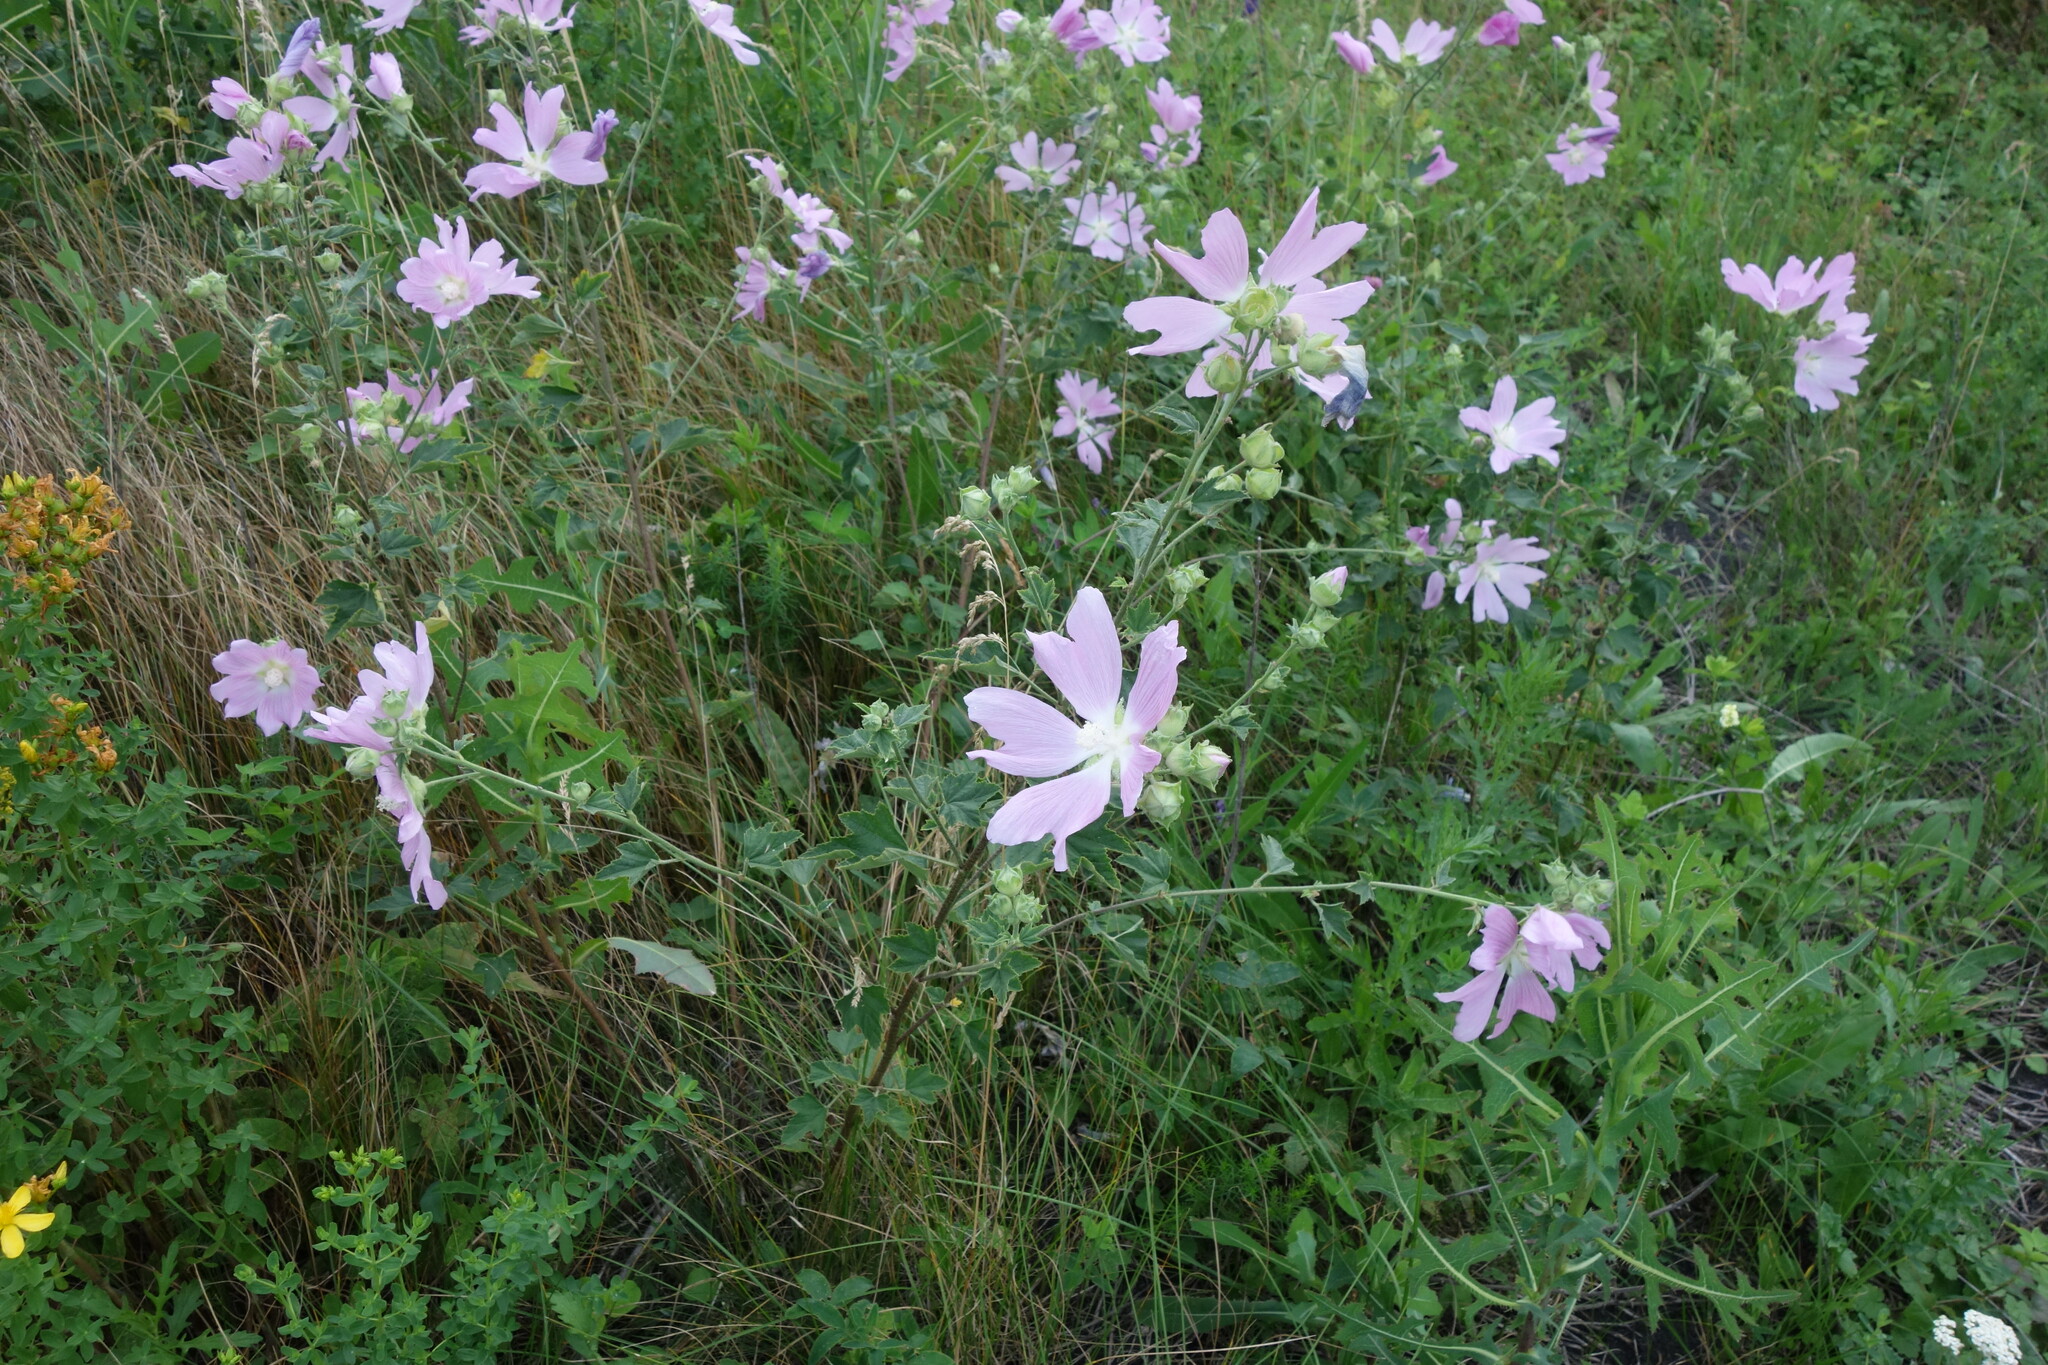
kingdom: Plantae
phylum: Tracheophyta
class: Magnoliopsida
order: Malvales
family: Malvaceae
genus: Malva
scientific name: Malva thuringiaca
